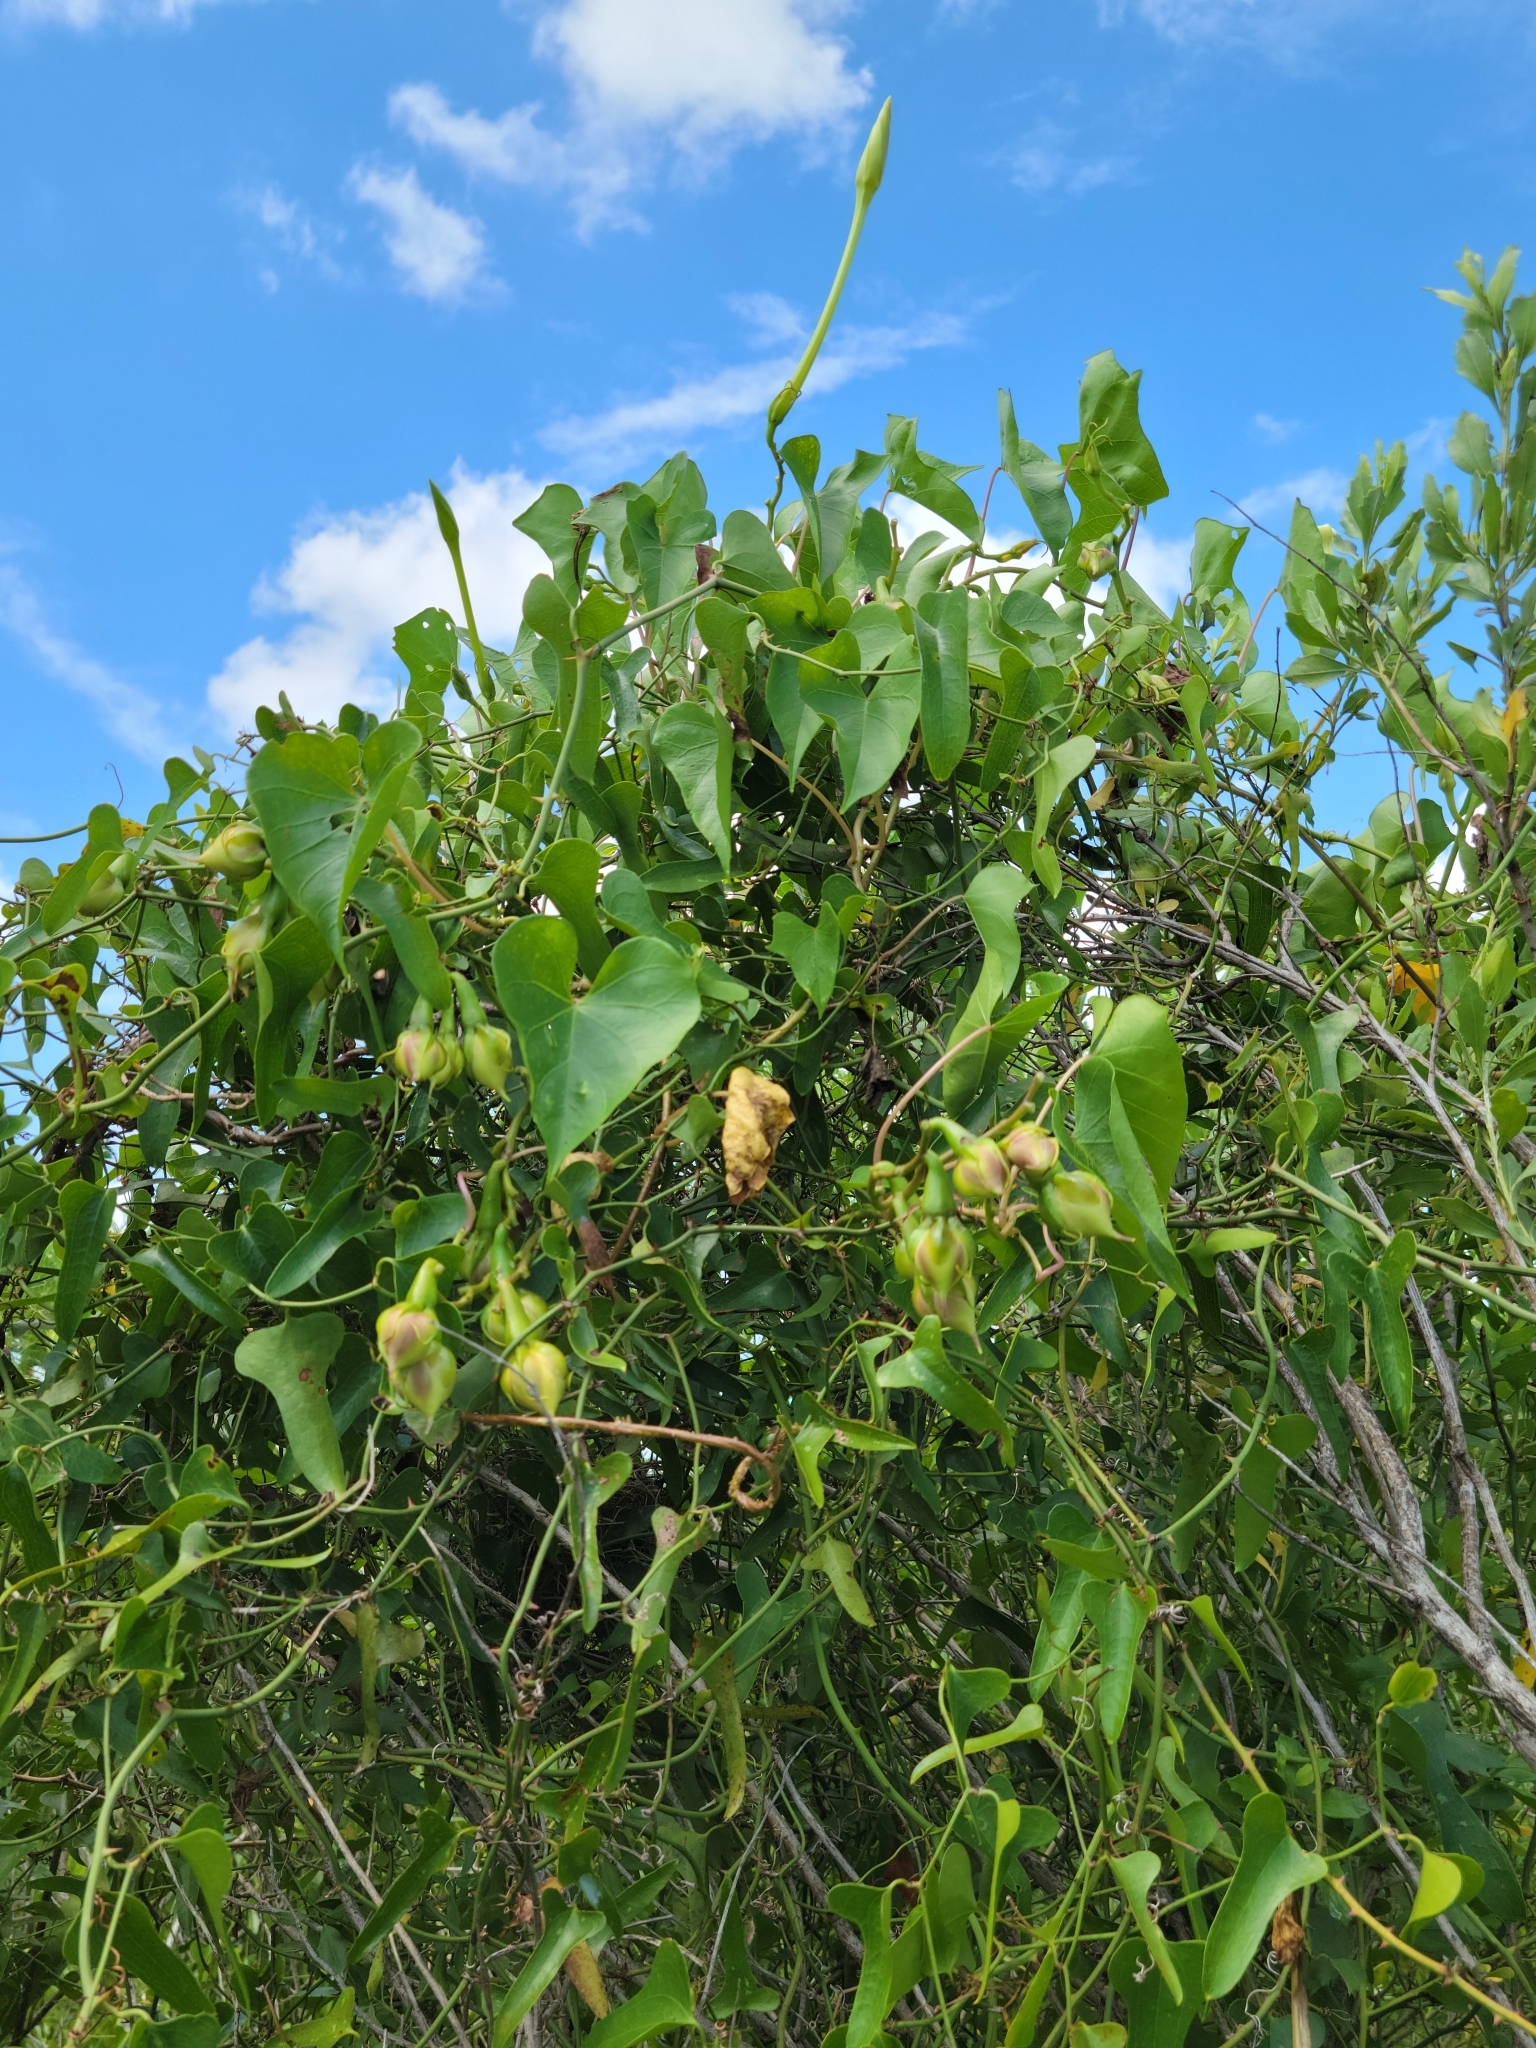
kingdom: Plantae
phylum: Tracheophyta
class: Magnoliopsida
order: Solanales
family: Convolvulaceae
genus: Ipomoea
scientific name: Ipomoea alba
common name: Moonflower
